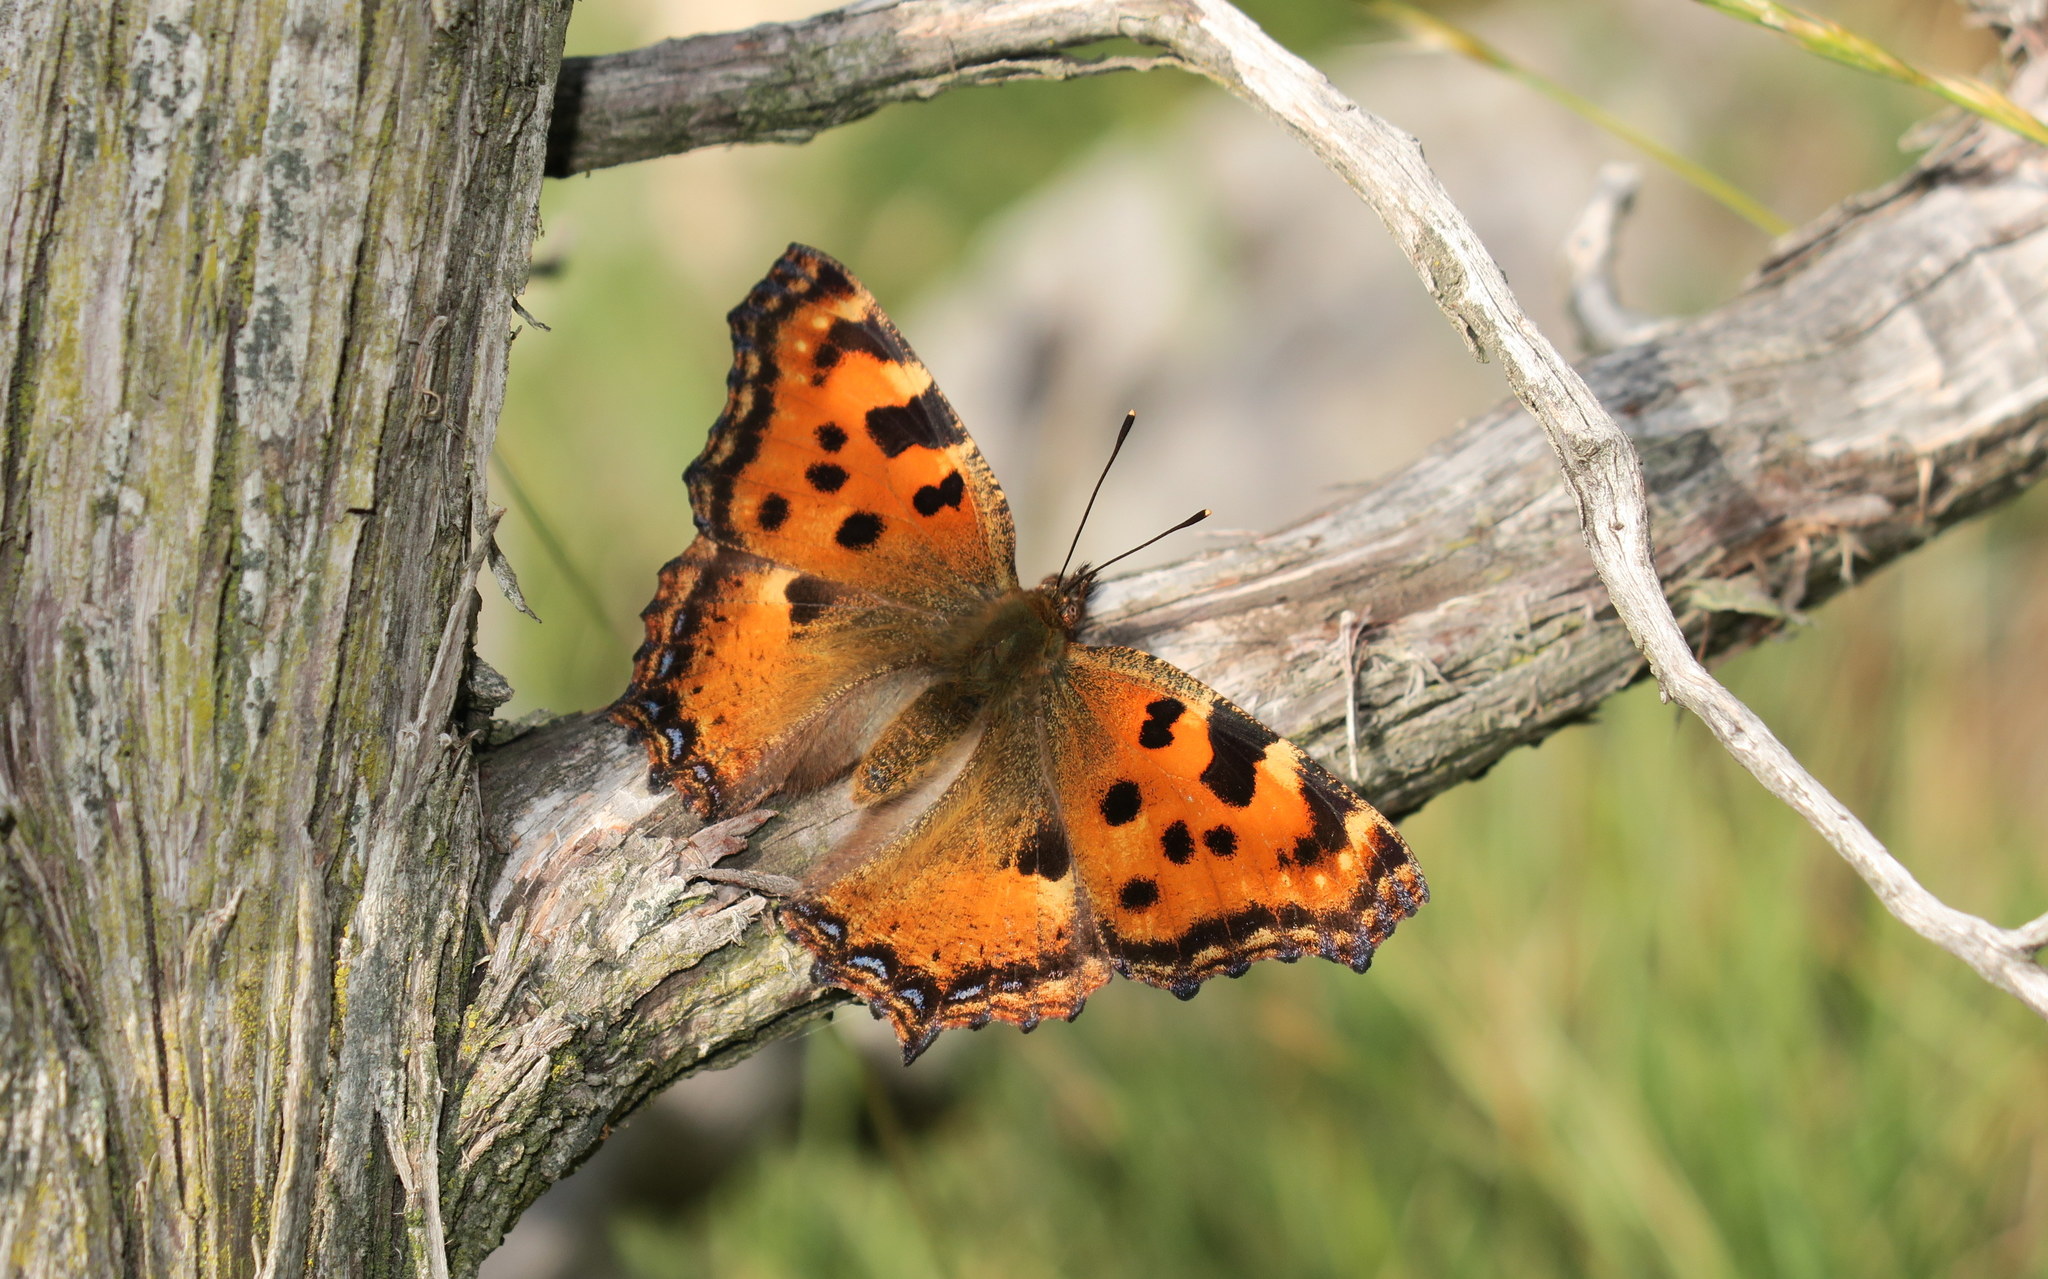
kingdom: Animalia
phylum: Arthropoda
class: Insecta
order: Lepidoptera
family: Nymphalidae
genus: Nymphalis
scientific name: Nymphalis polychloros
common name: Large tortoiseshell
